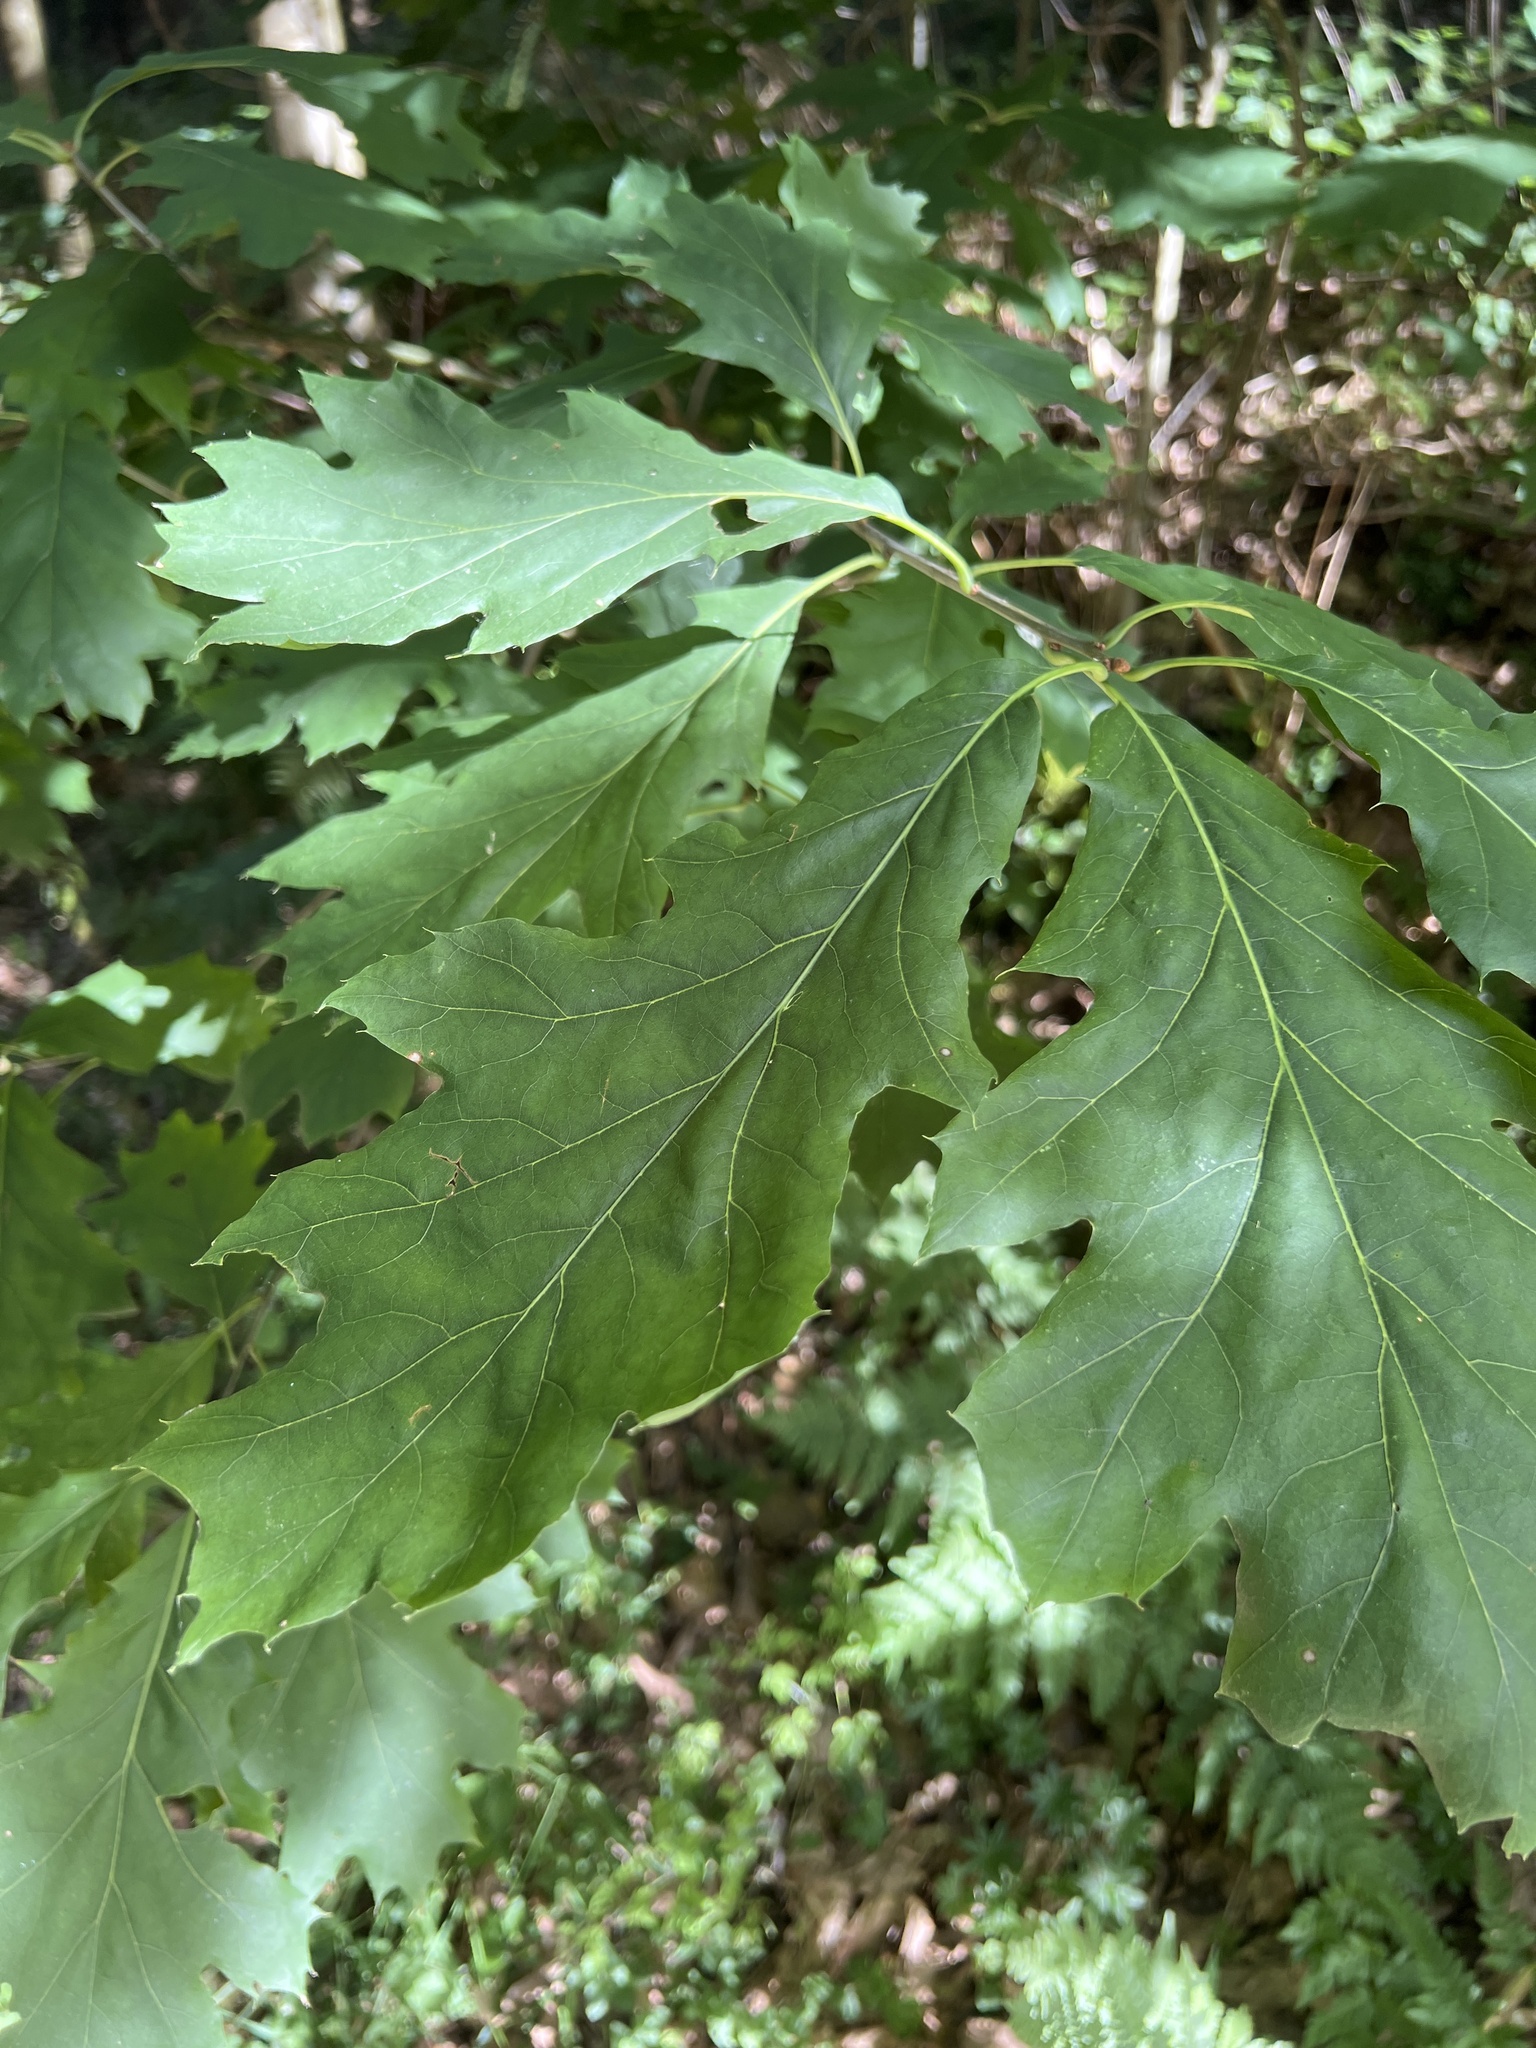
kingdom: Plantae
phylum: Tracheophyta
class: Magnoliopsida
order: Fagales
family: Fagaceae
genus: Quercus
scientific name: Quercus rubra
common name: Red oak
